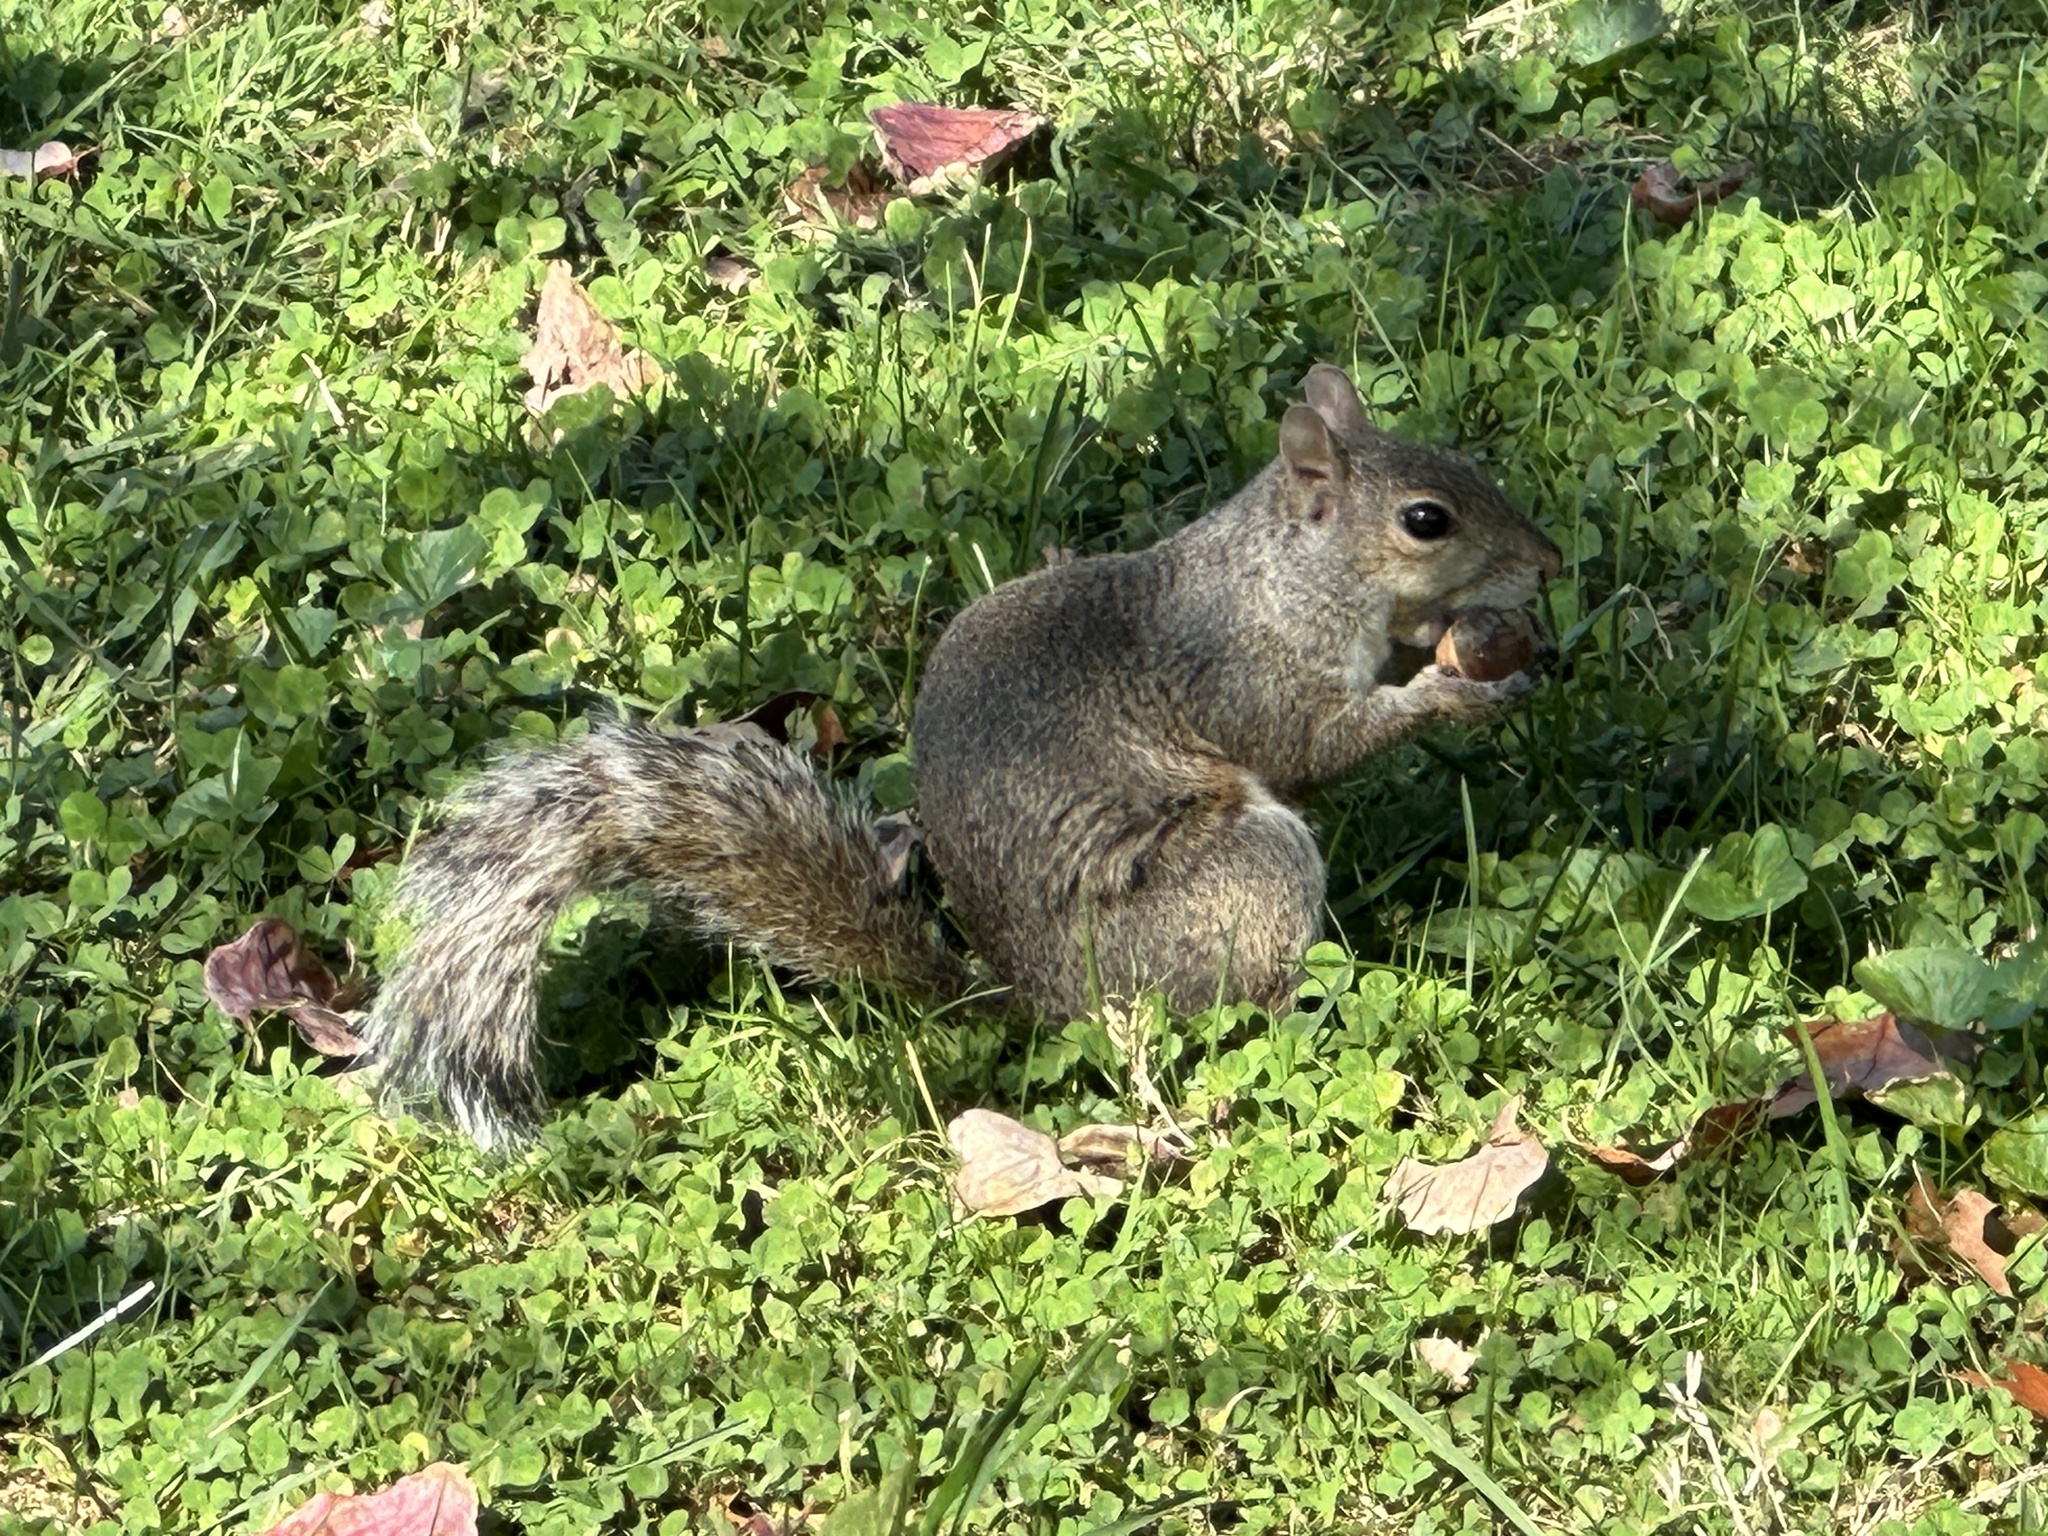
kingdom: Animalia
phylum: Chordata
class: Mammalia
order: Rodentia
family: Sciuridae
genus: Sciurus
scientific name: Sciurus carolinensis
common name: Eastern gray squirrel
